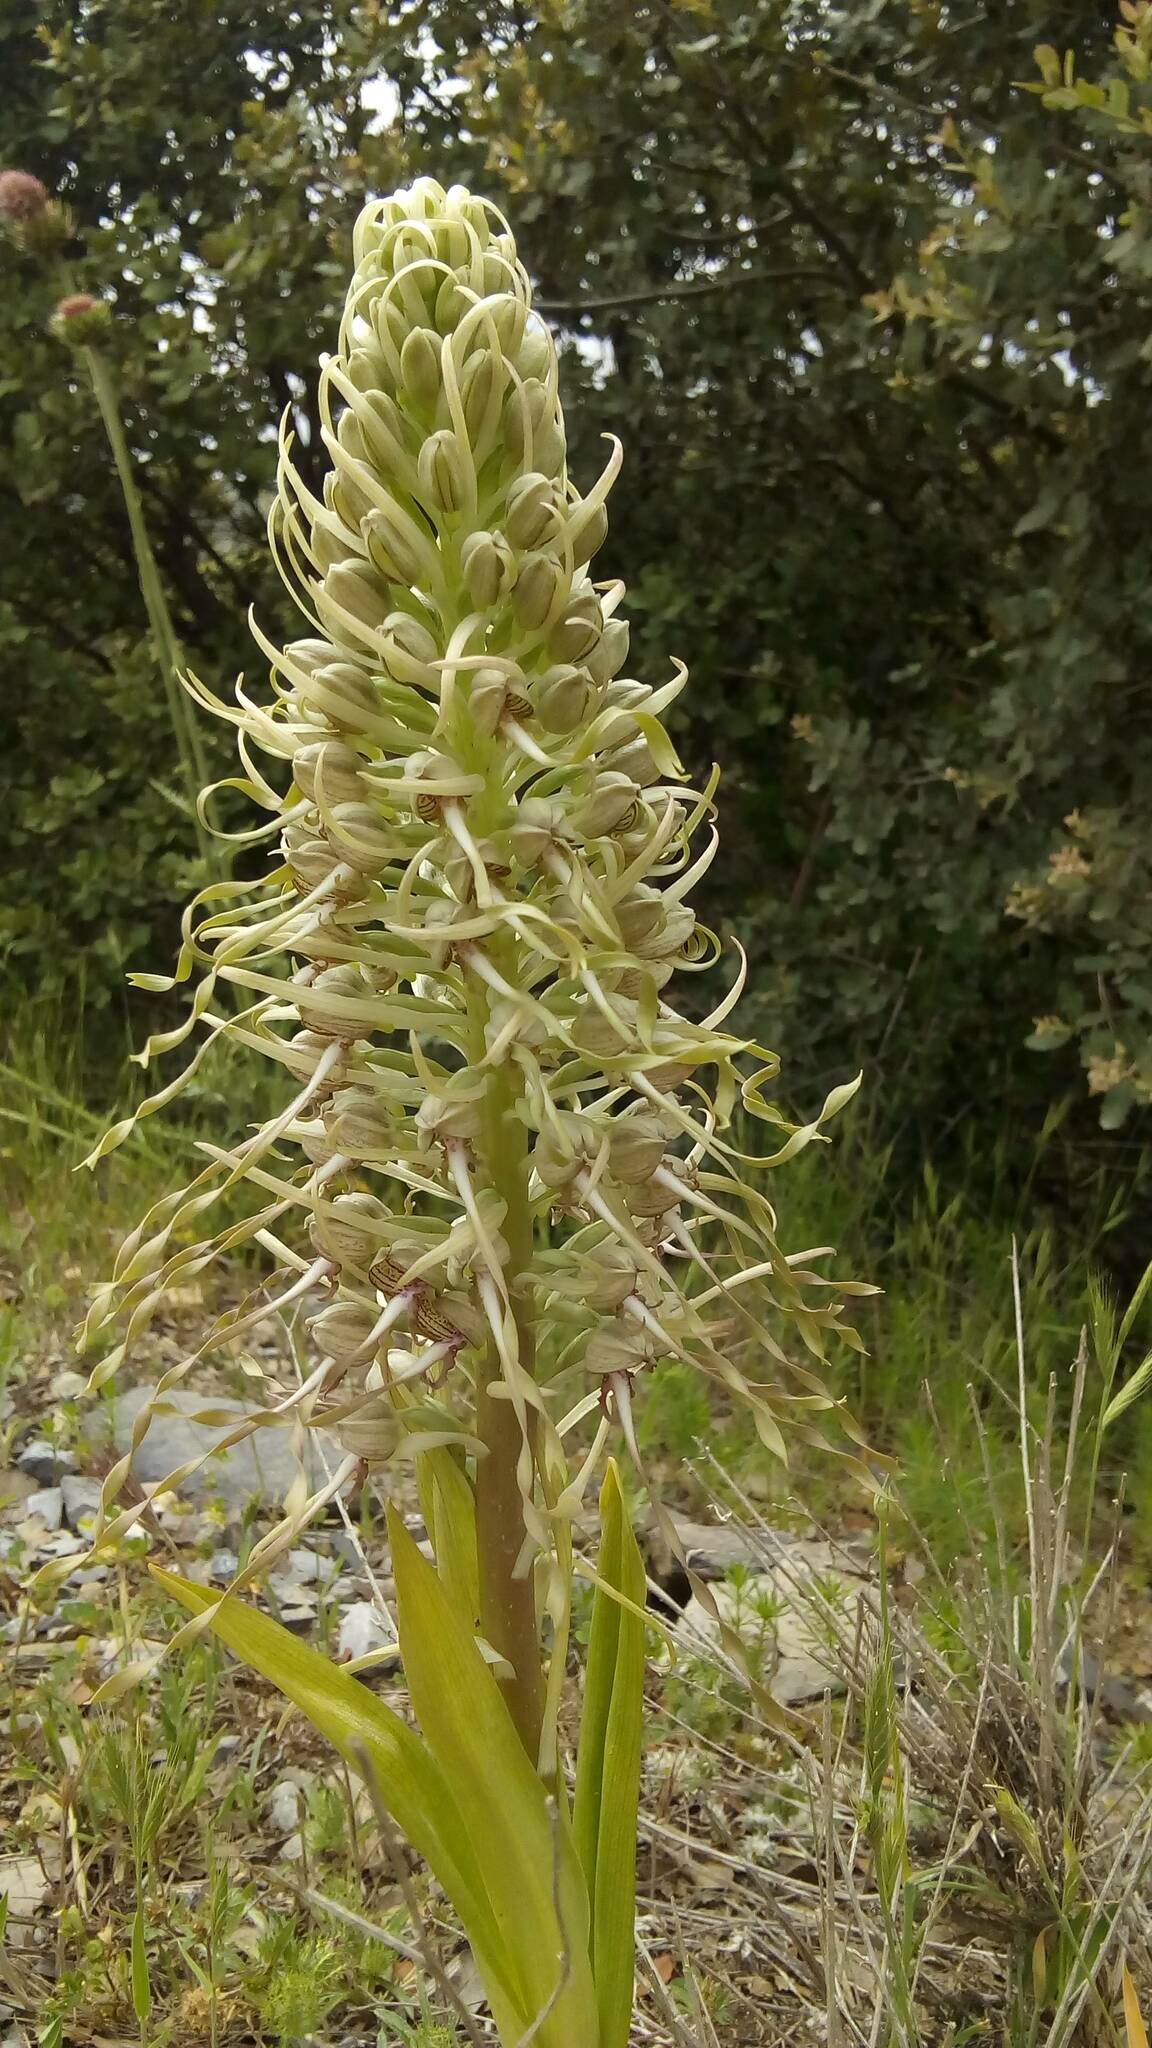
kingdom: Plantae
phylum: Tracheophyta
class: Liliopsida
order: Asparagales
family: Orchidaceae
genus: Himantoglossum
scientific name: Himantoglossum hircinum
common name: Lizard orchid
